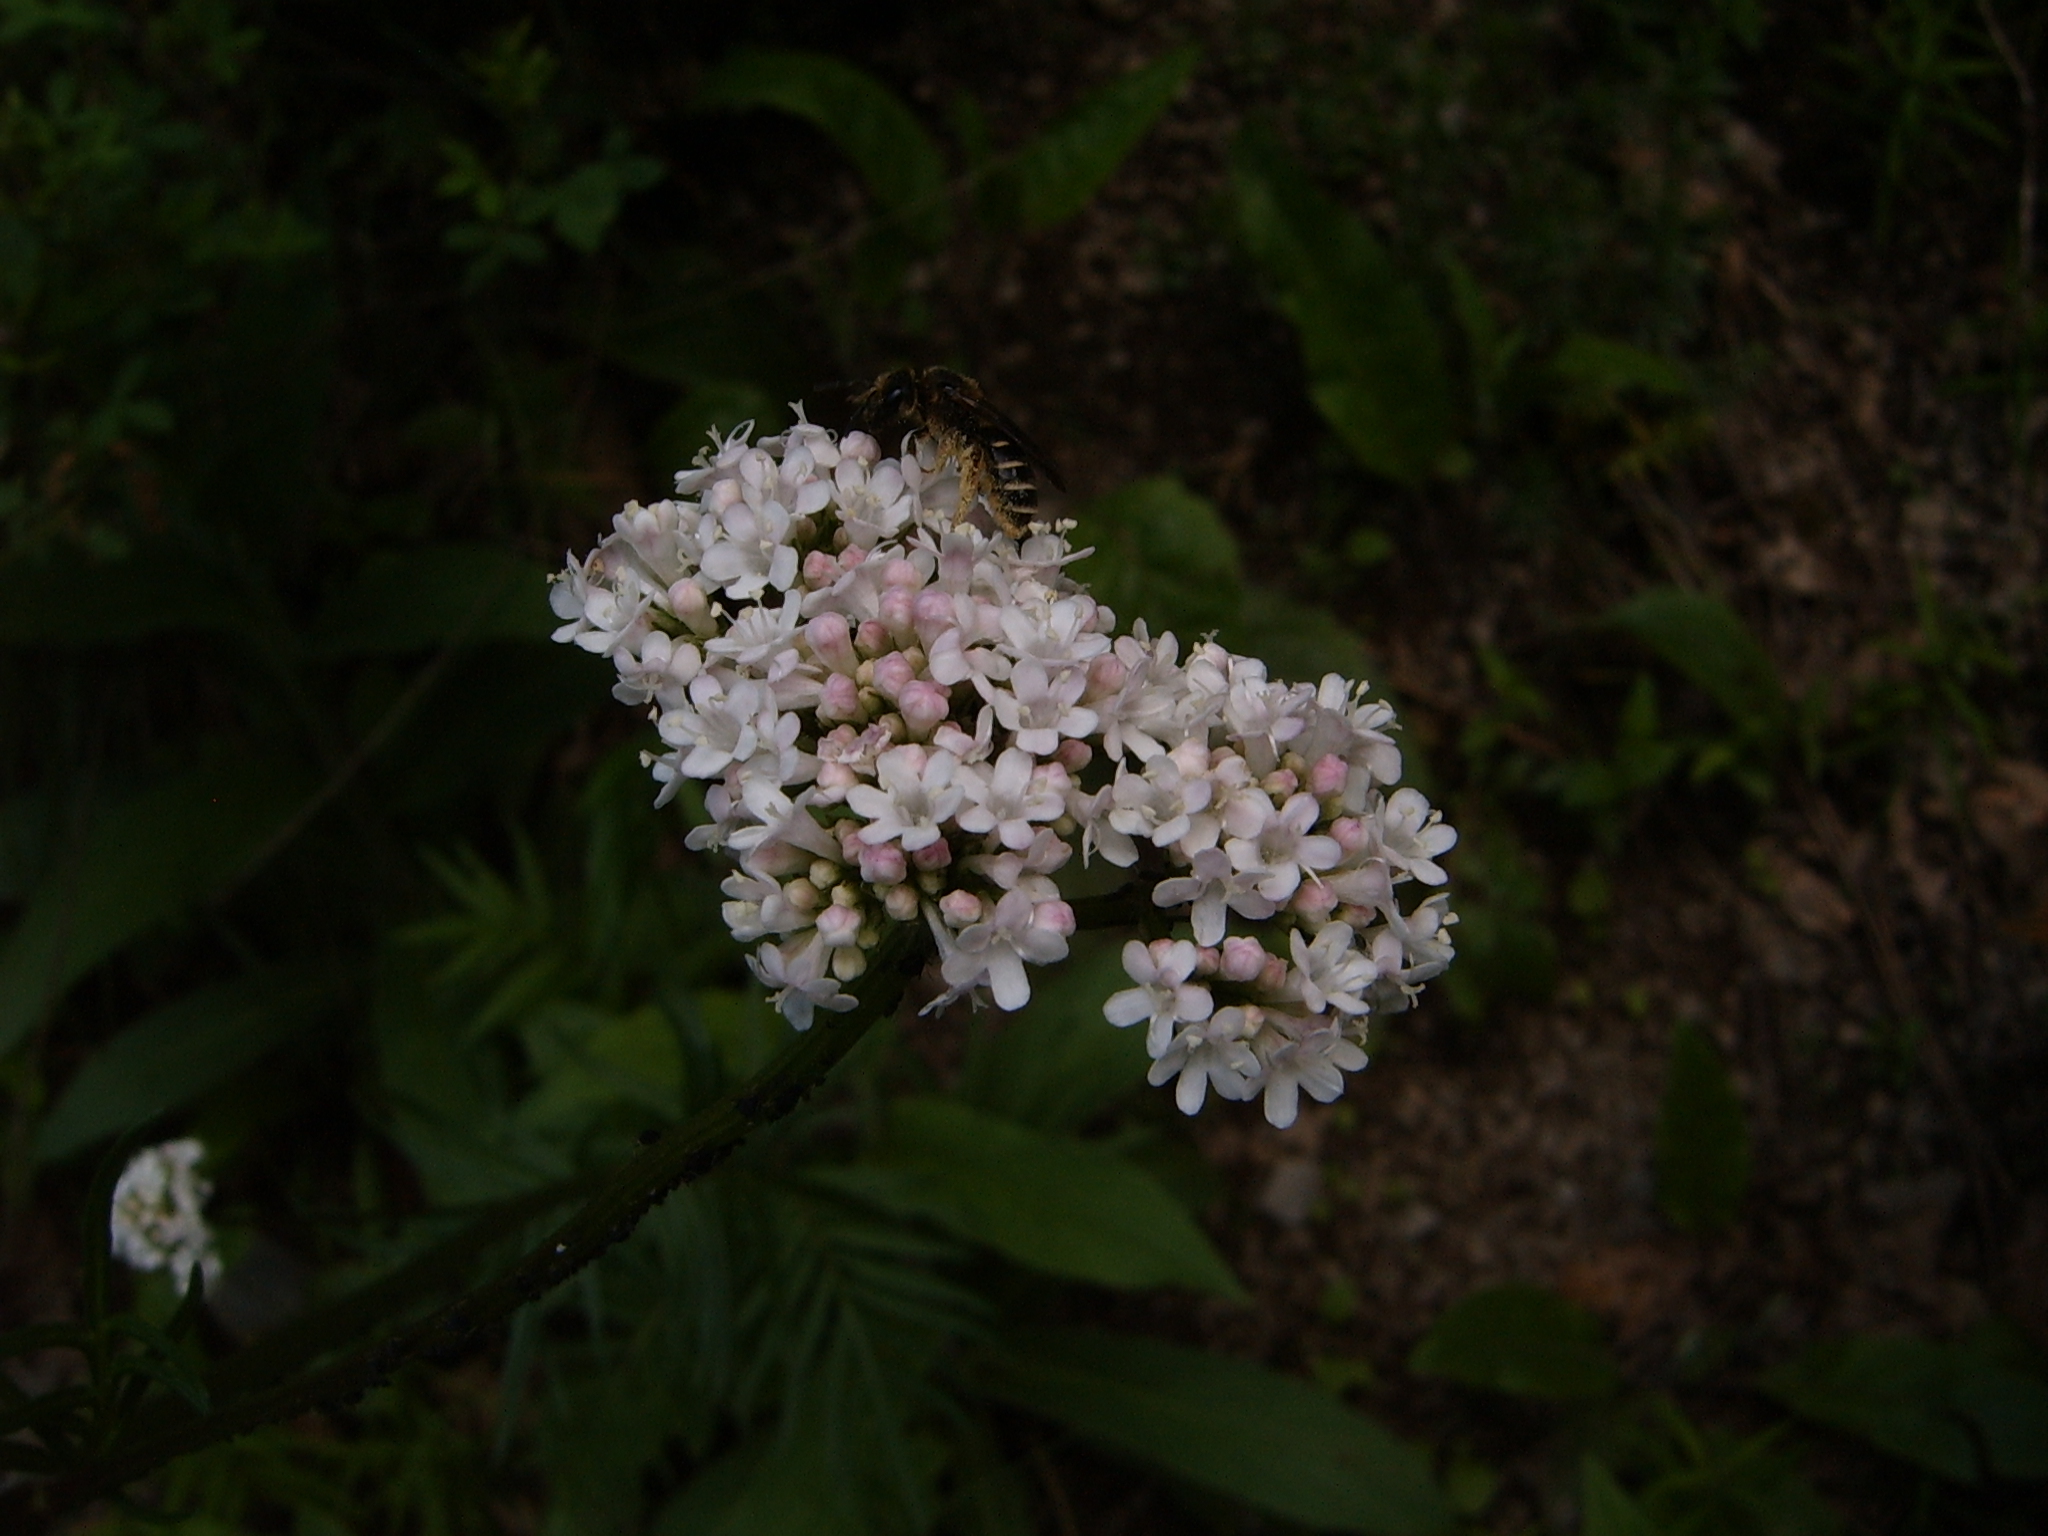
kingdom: Plantae
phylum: Tracheophyta
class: Magnoliopsida
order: Dipsacales
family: Caprifoliaceae
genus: Valeriana
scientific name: Valeriana officinalis
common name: Common valerian
